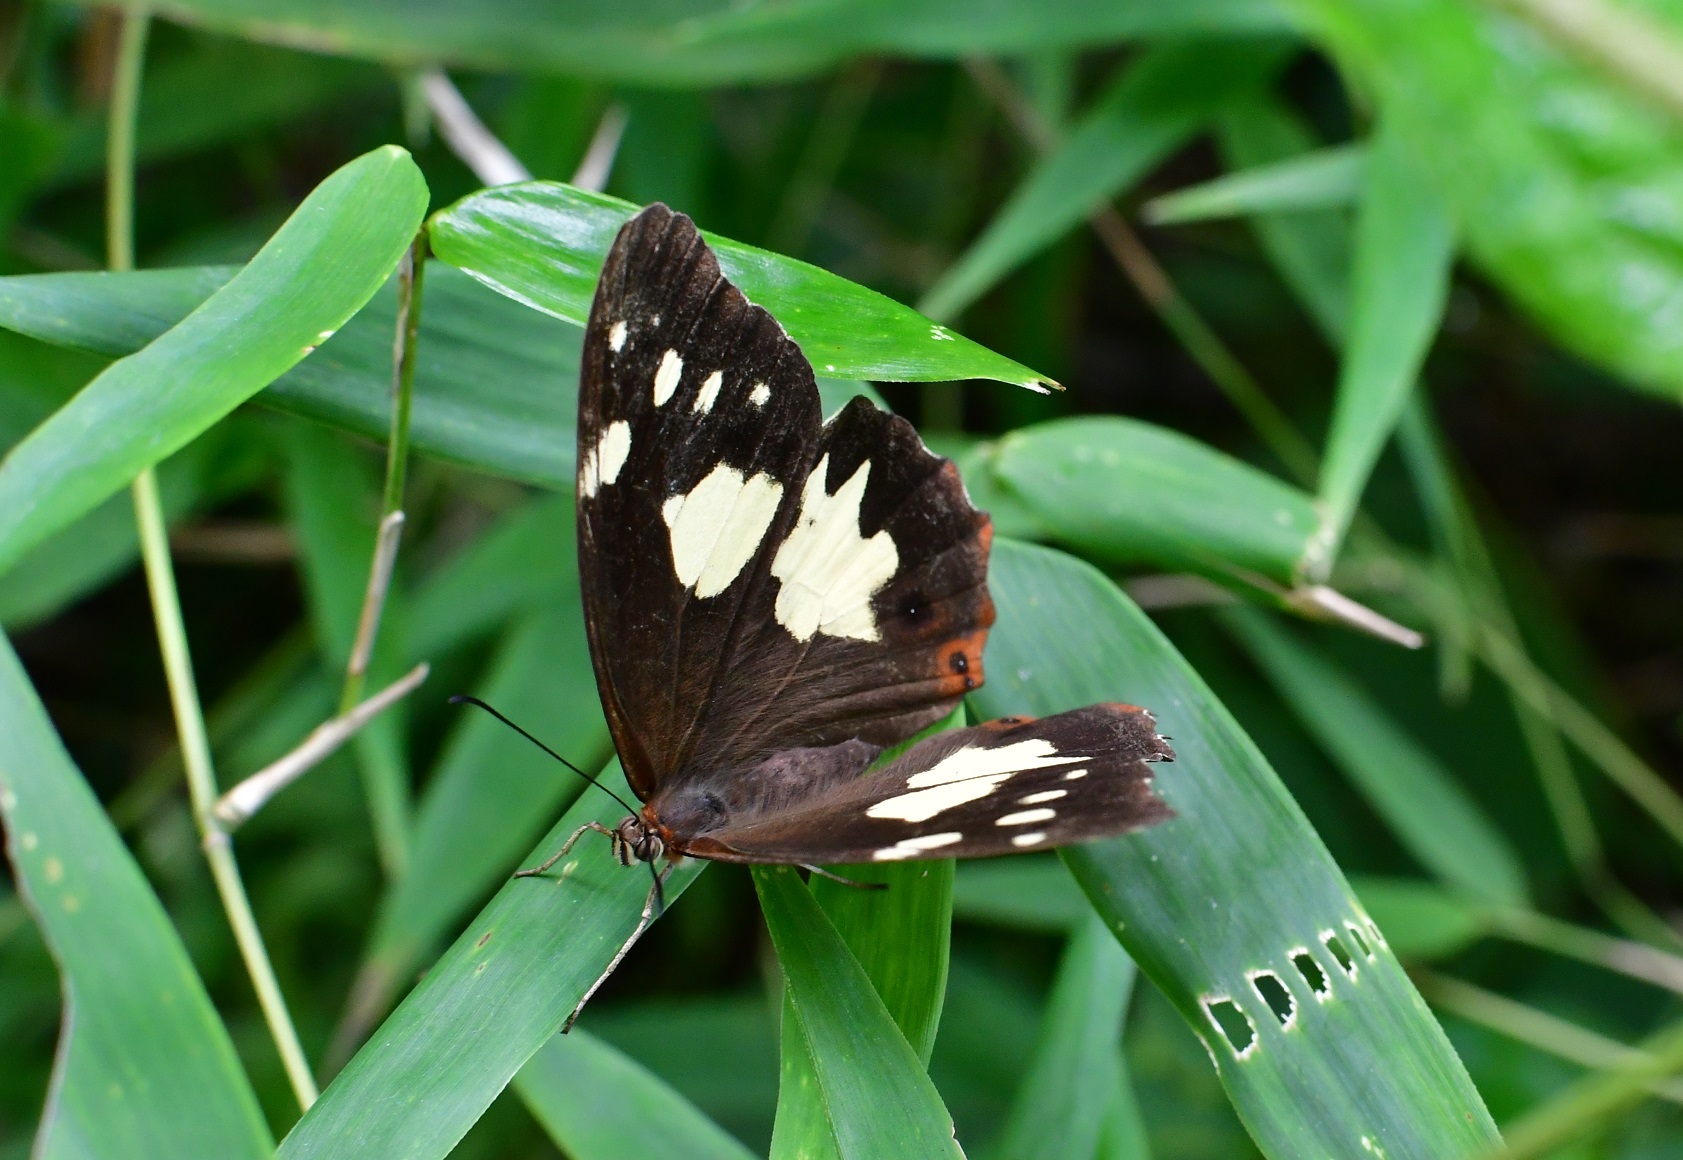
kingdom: Animalia
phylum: Arthropoda
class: Insecta
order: Lepidoptera
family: Nymphalidae
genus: Oxeoschistus
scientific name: Oxeoschistus tauropolis
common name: Starred oxeo
